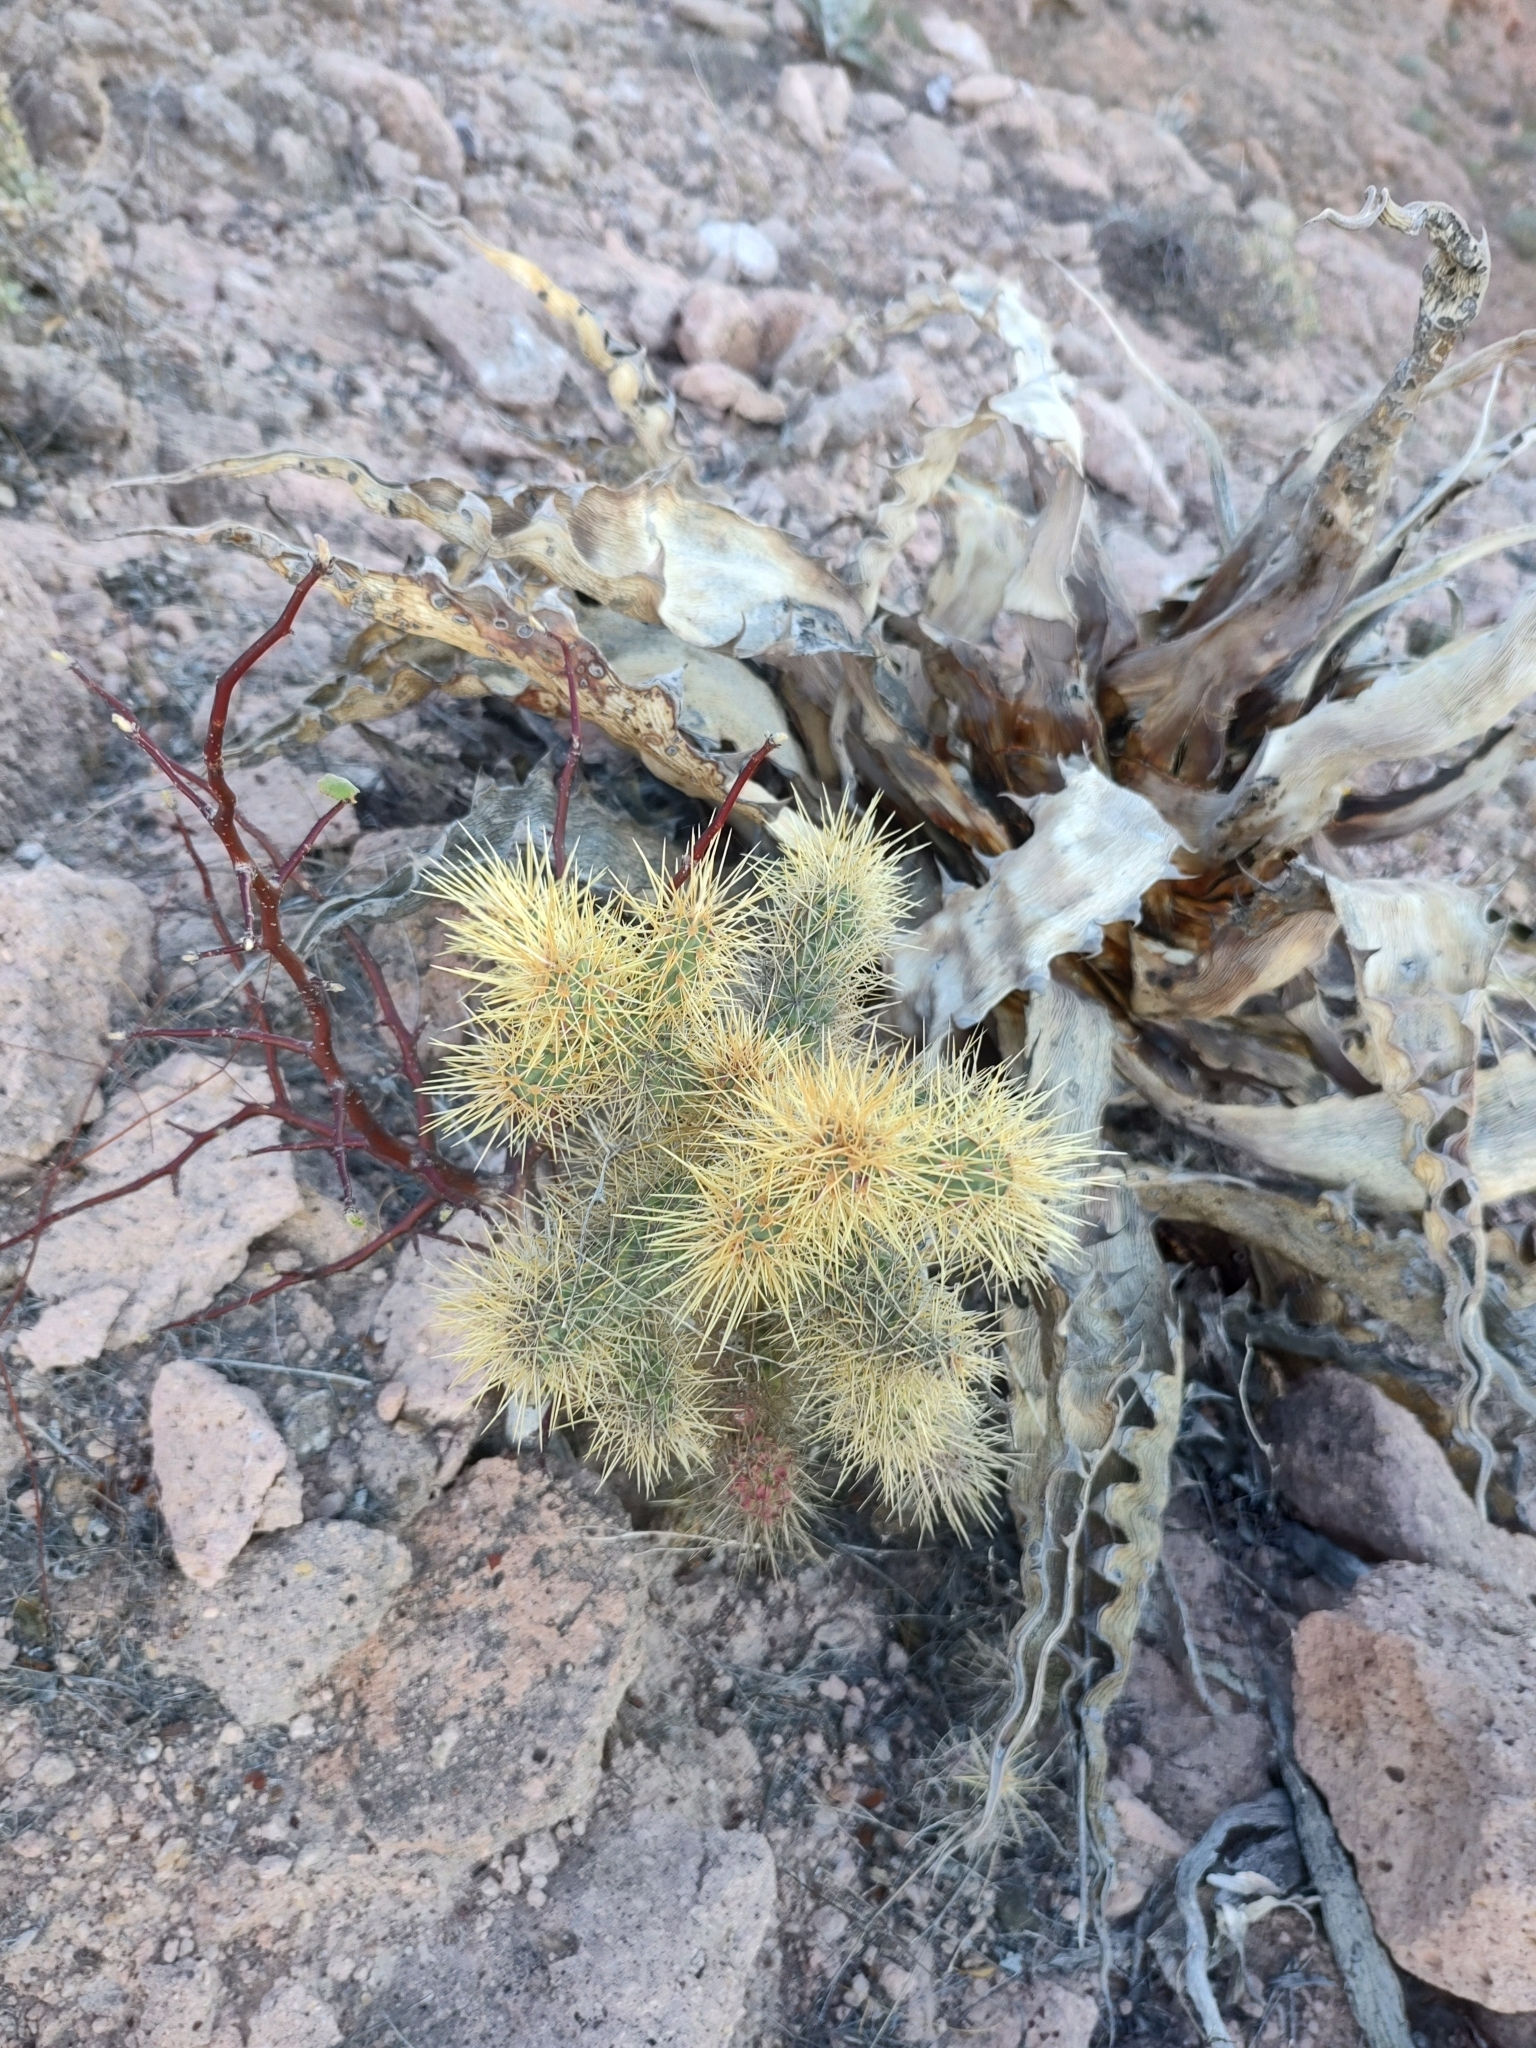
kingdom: Plantae
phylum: Tracheophyta
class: Magnoliopsida
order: Caryophyllales
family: Cactaceae
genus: Cylindropuntia
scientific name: Cylindropuntia alcahes
